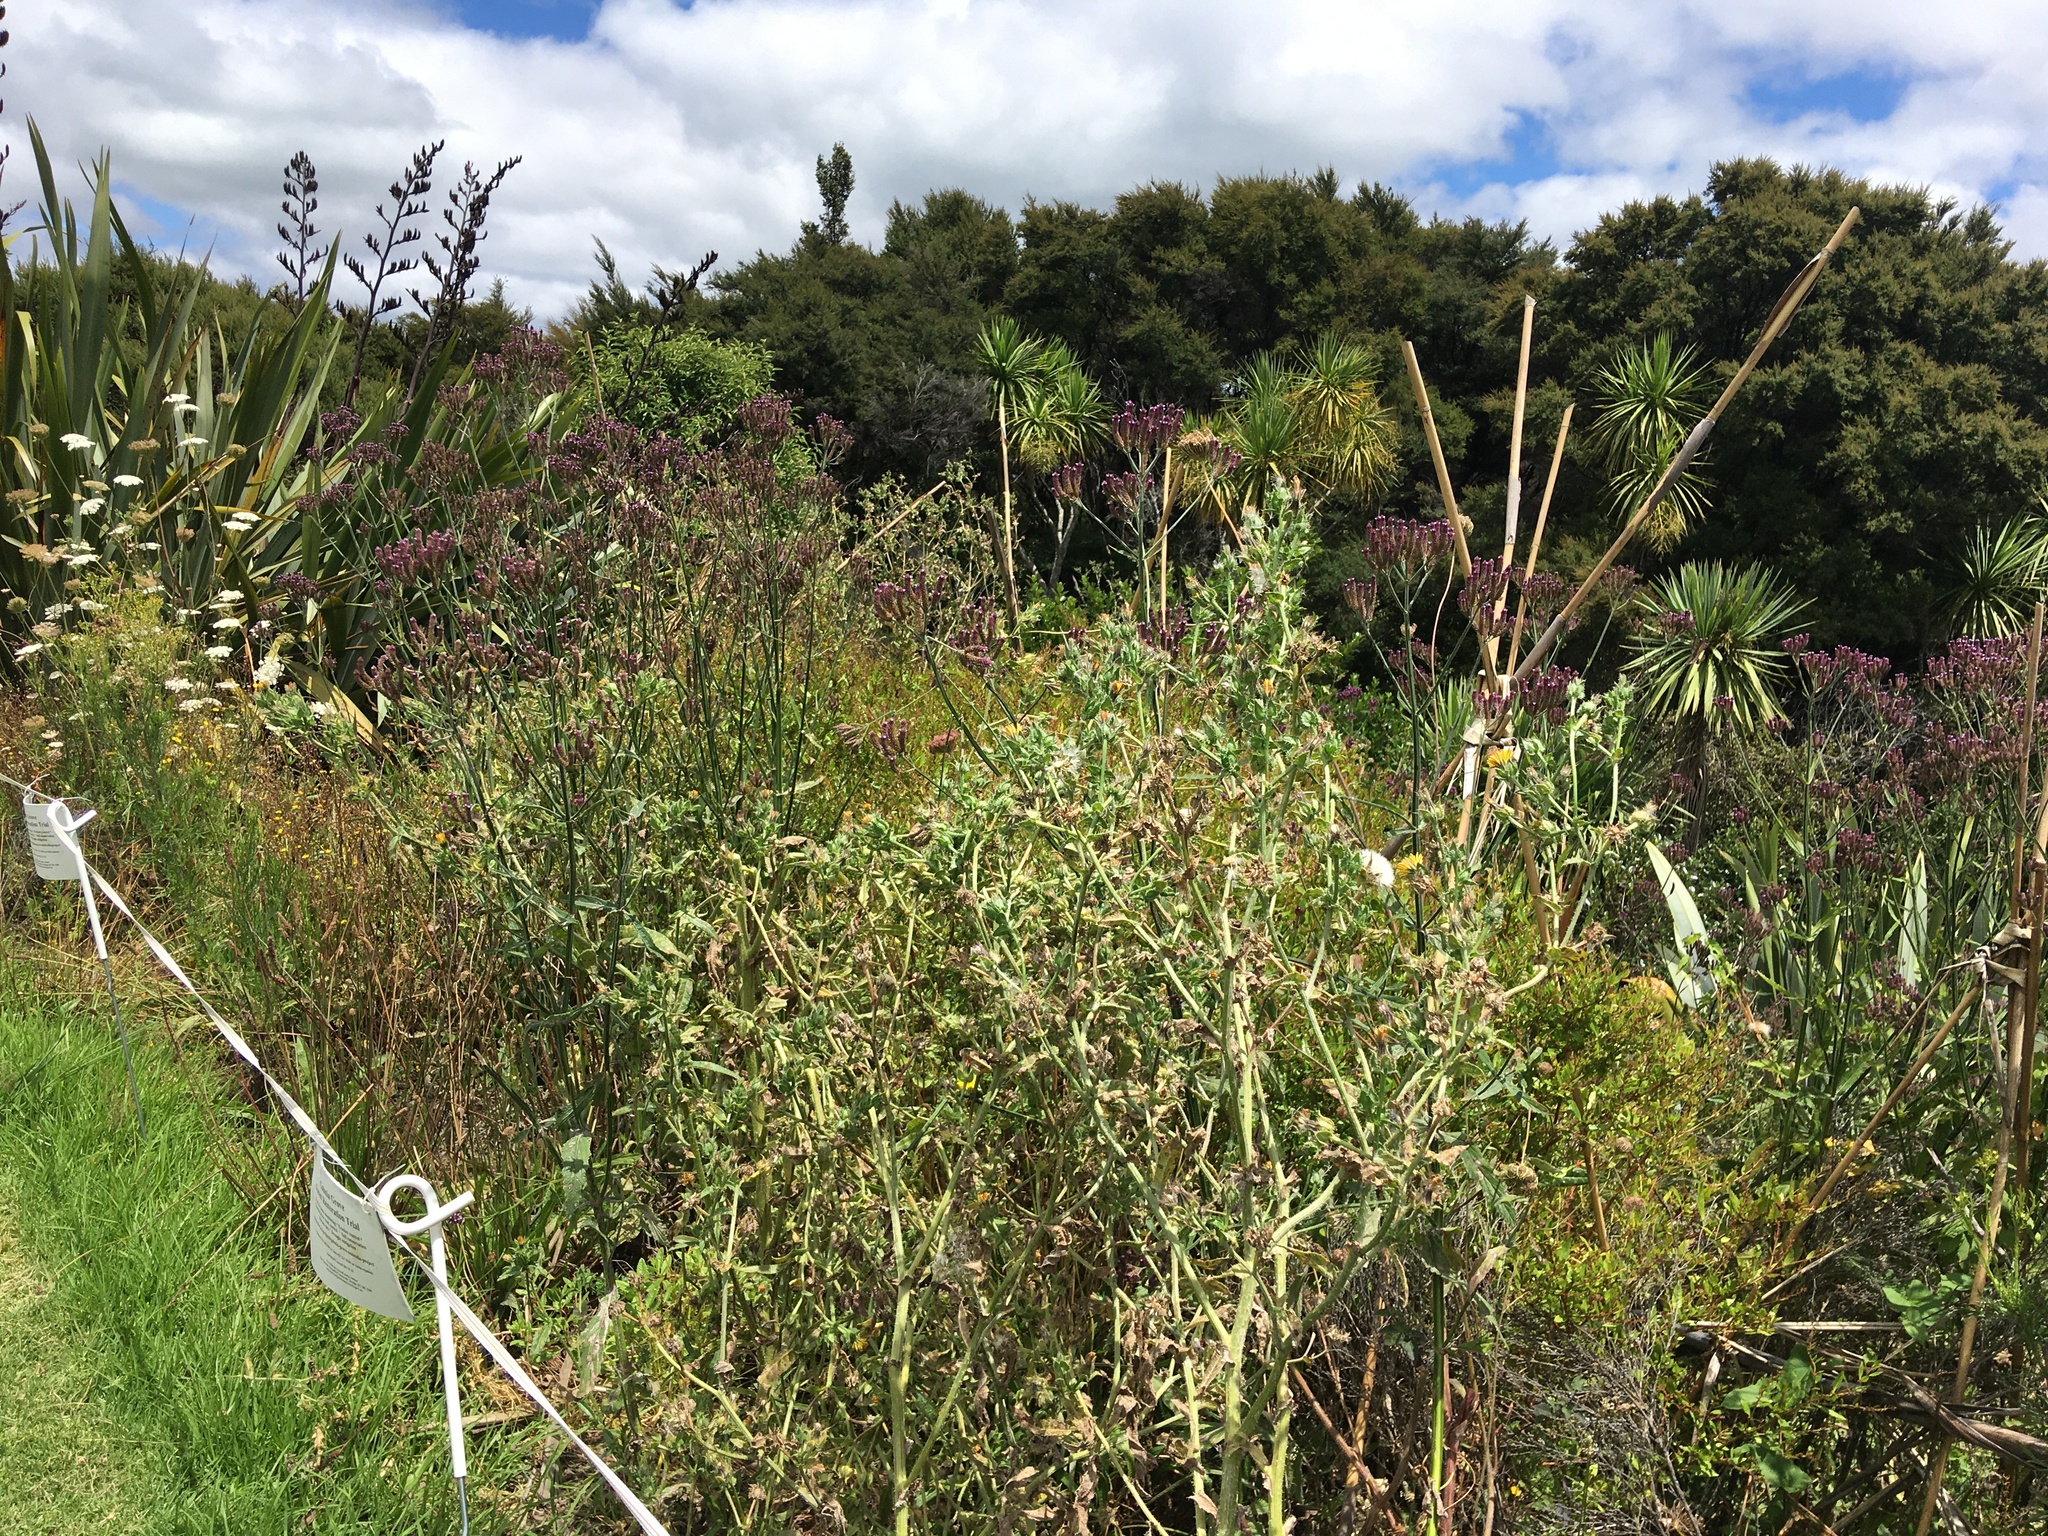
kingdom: Plantae
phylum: Tracheophyta
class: Magnoliopsida
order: Lamiales
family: Verbenaceae
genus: Verbena
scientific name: Verbena incompta
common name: Purpletop vervain
